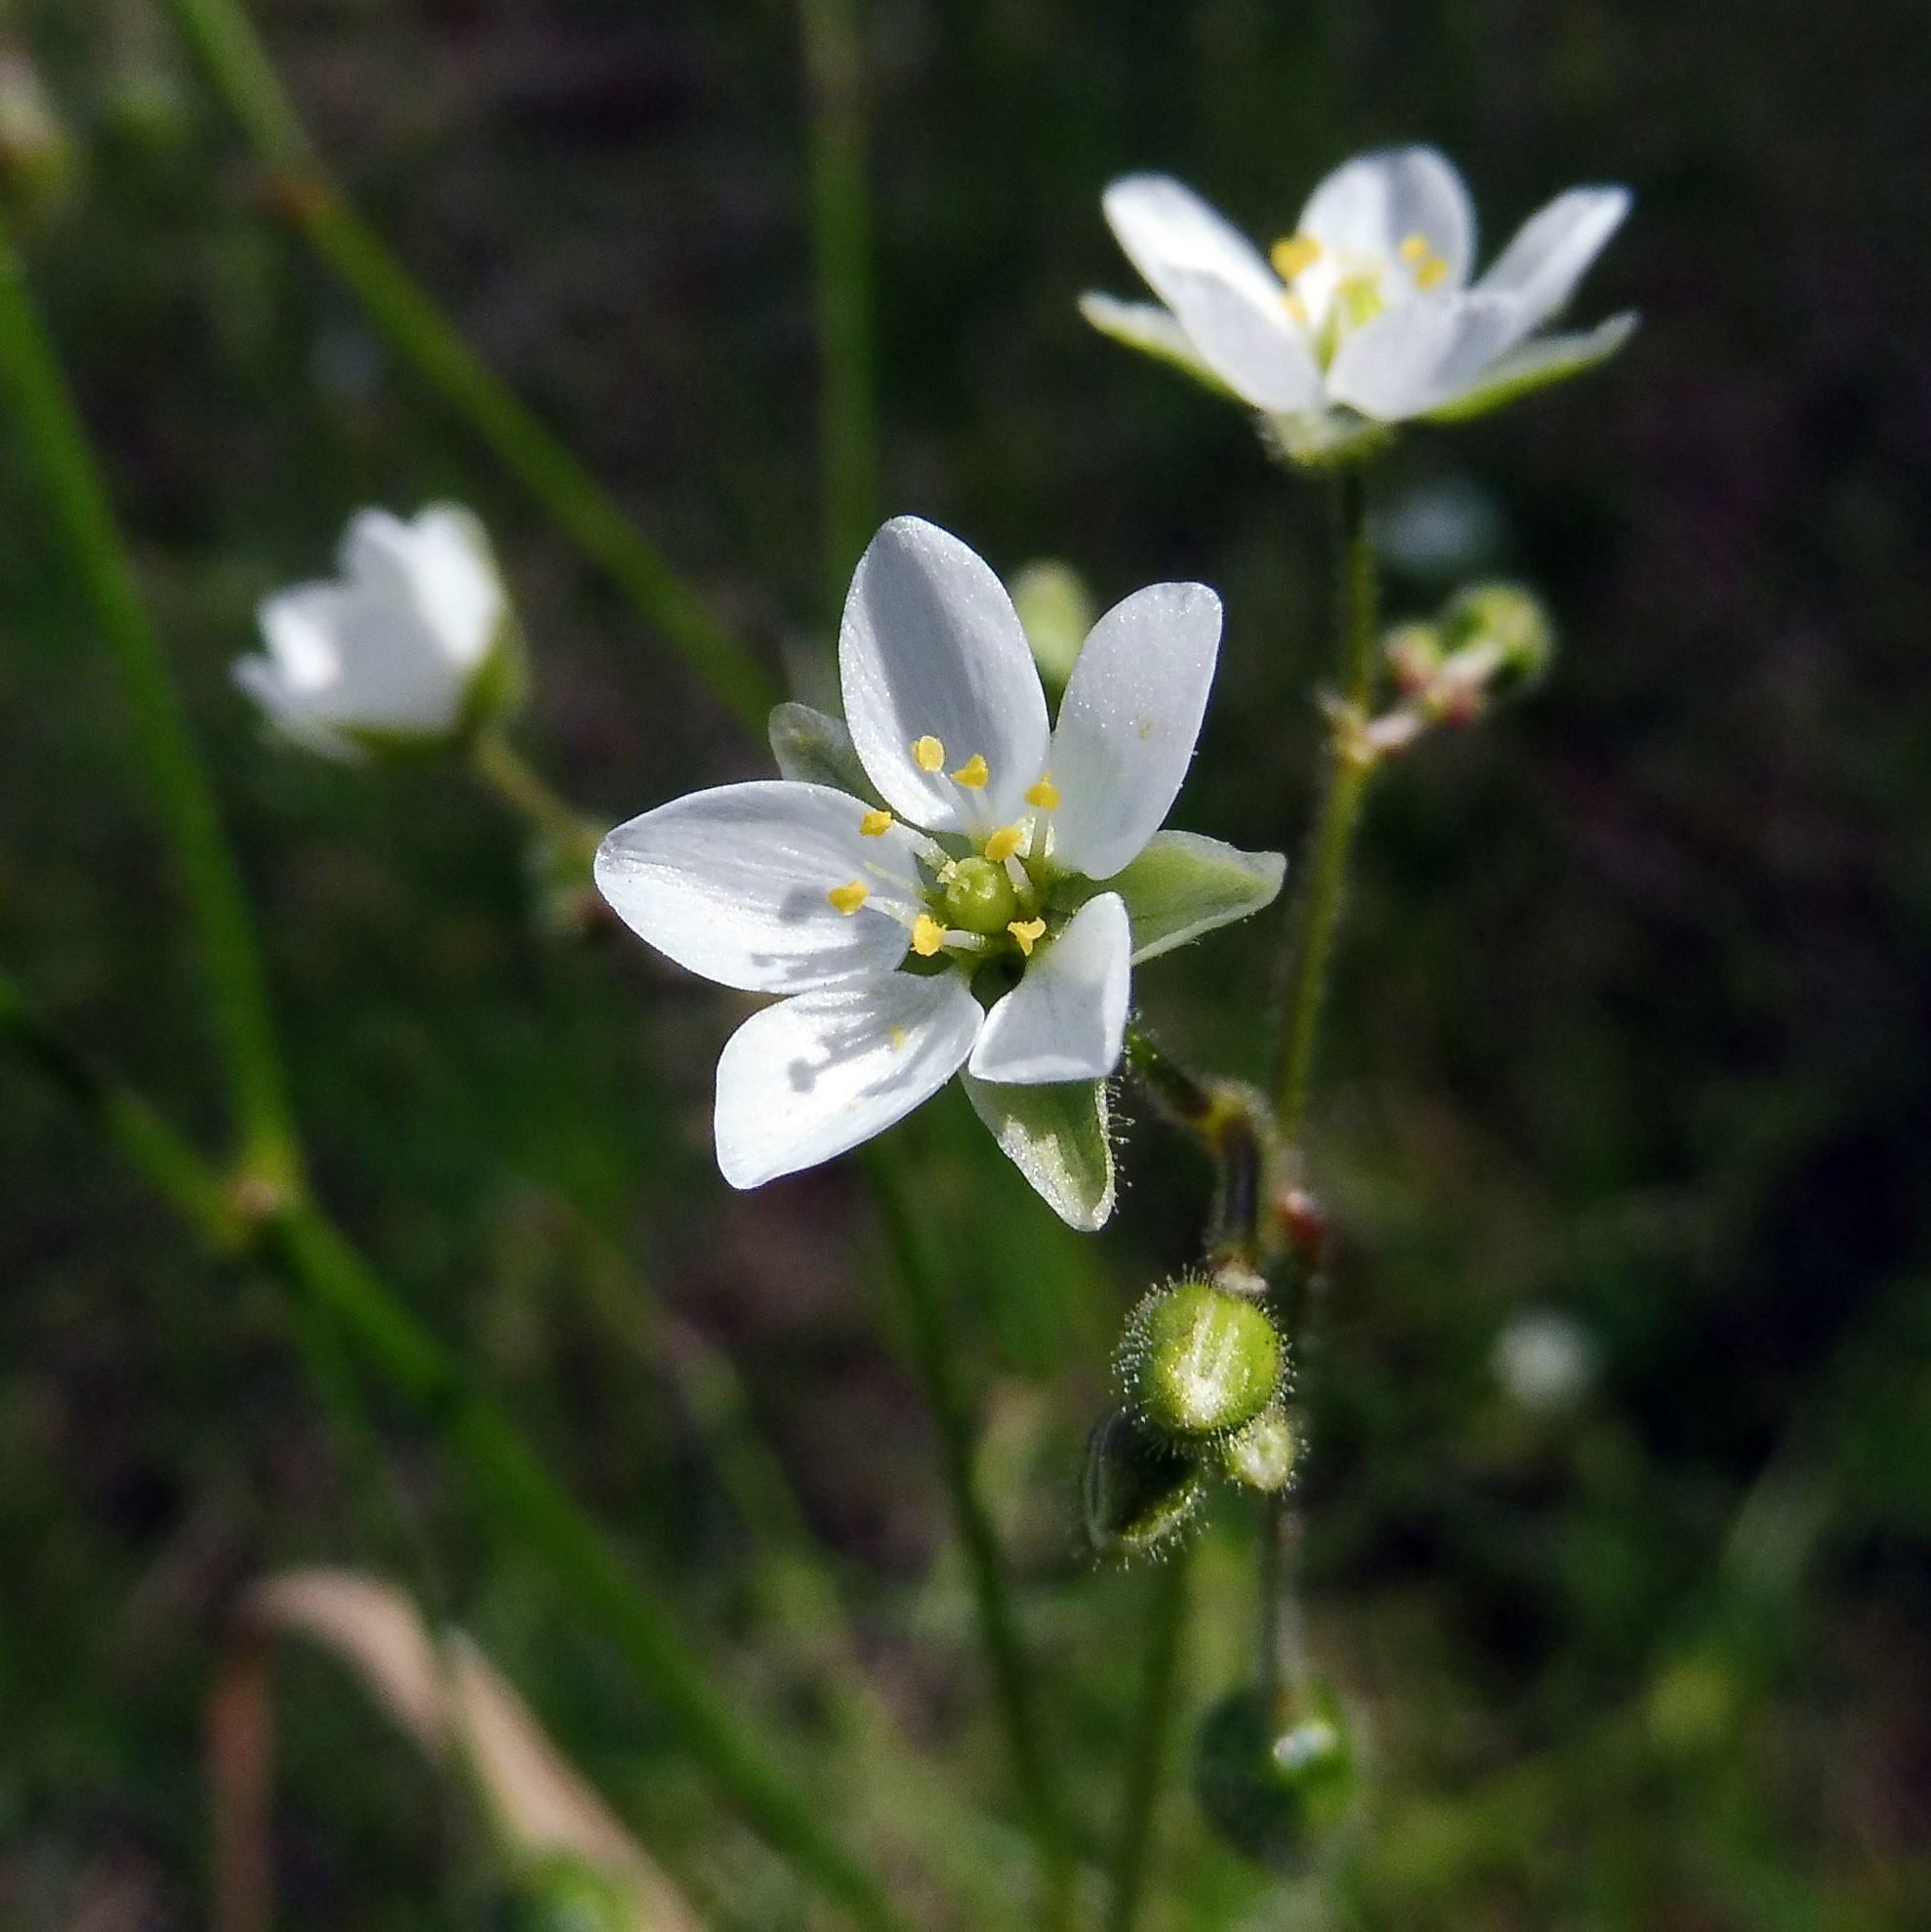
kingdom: Plantae
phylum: Tracheophyta
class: Magnoliopsida
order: Caryophyllales
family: Caryophyllaceae
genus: Spergula
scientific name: Spergula arvensis
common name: Corn spurrey
